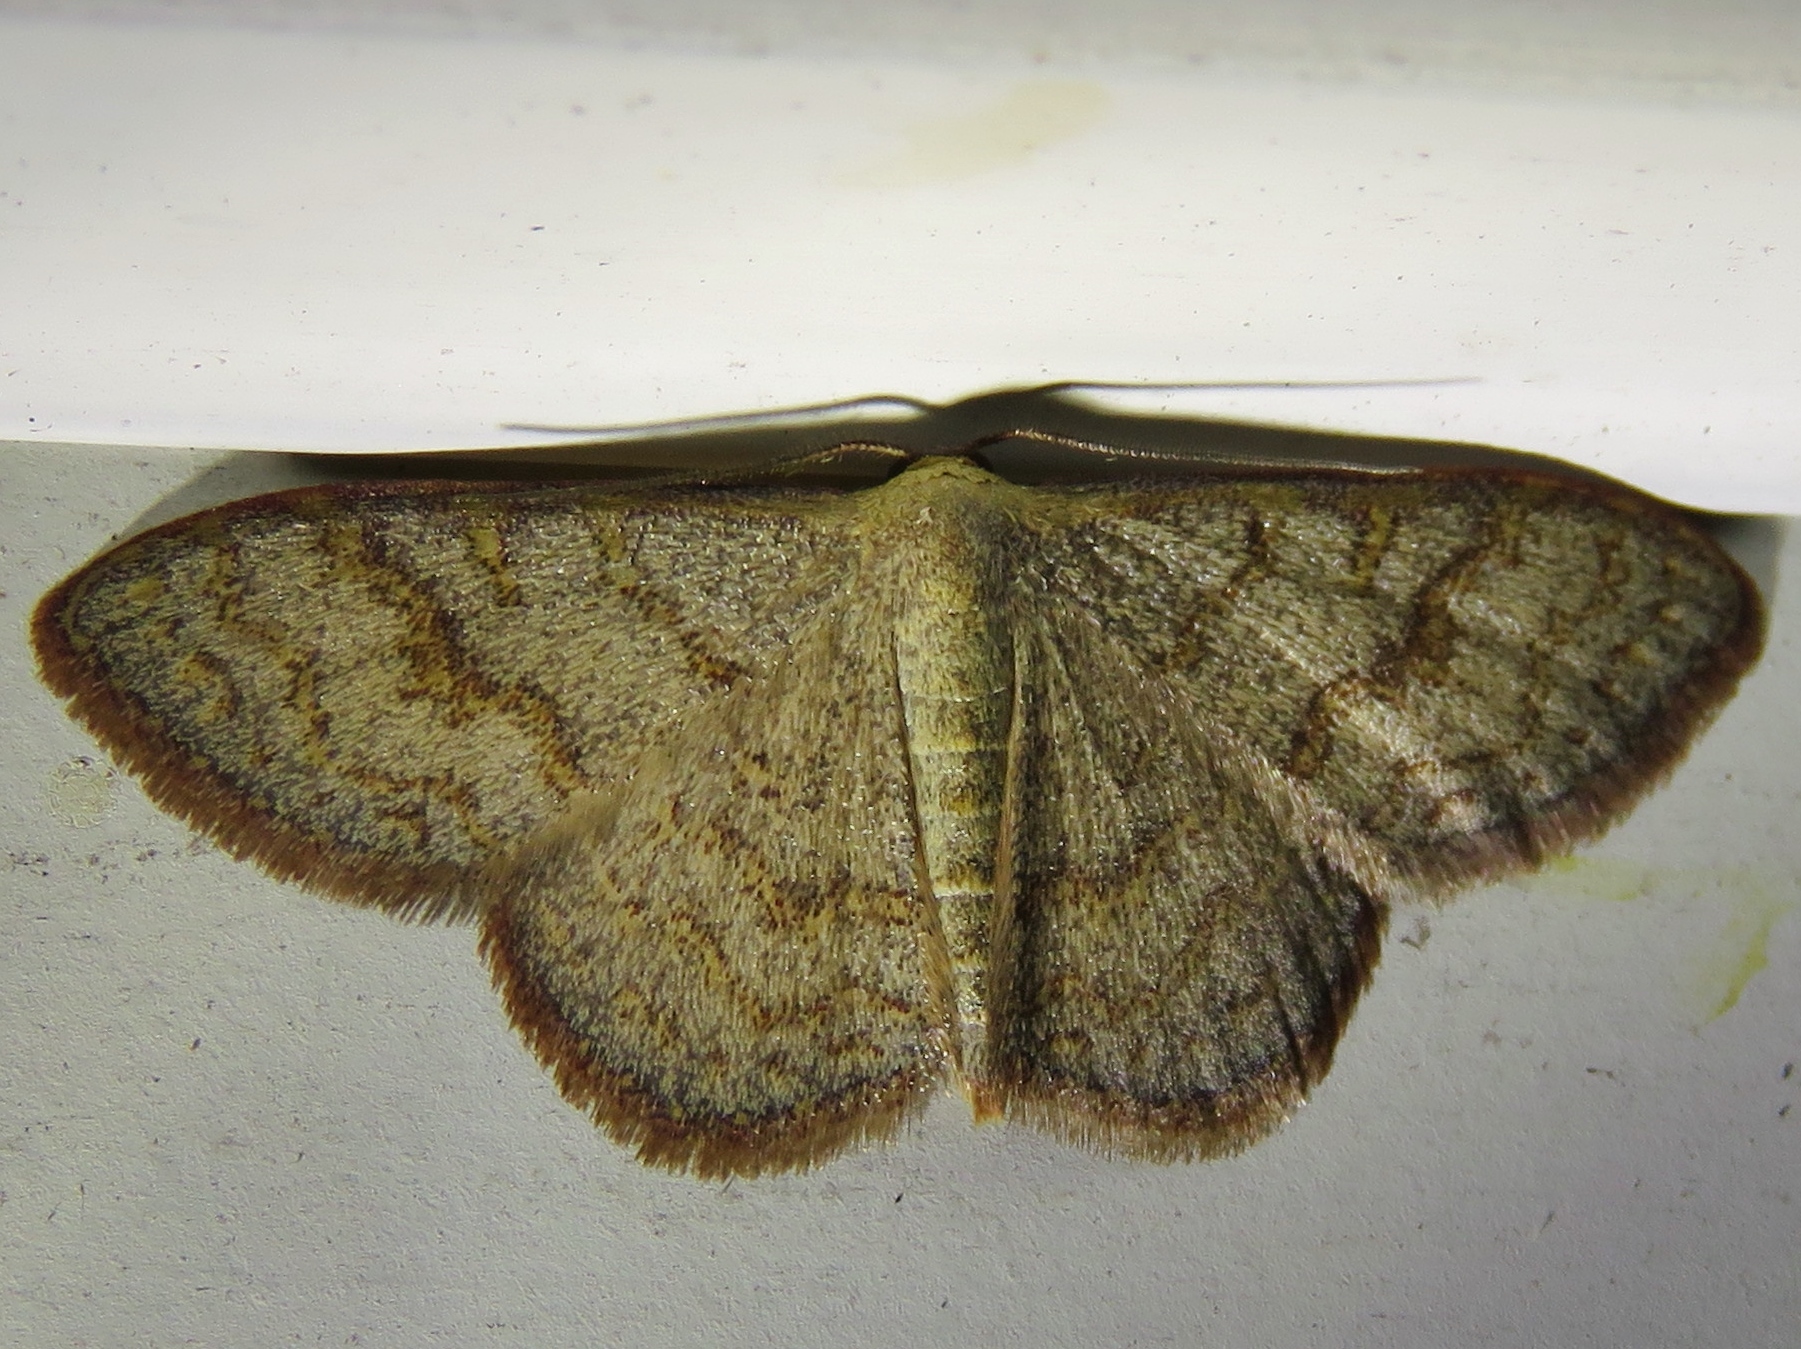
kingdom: Animalia
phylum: Arthropoda
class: Insecta
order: Lepidoptera
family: Geometridae
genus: Leptostales
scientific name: Leptostales pannaria
